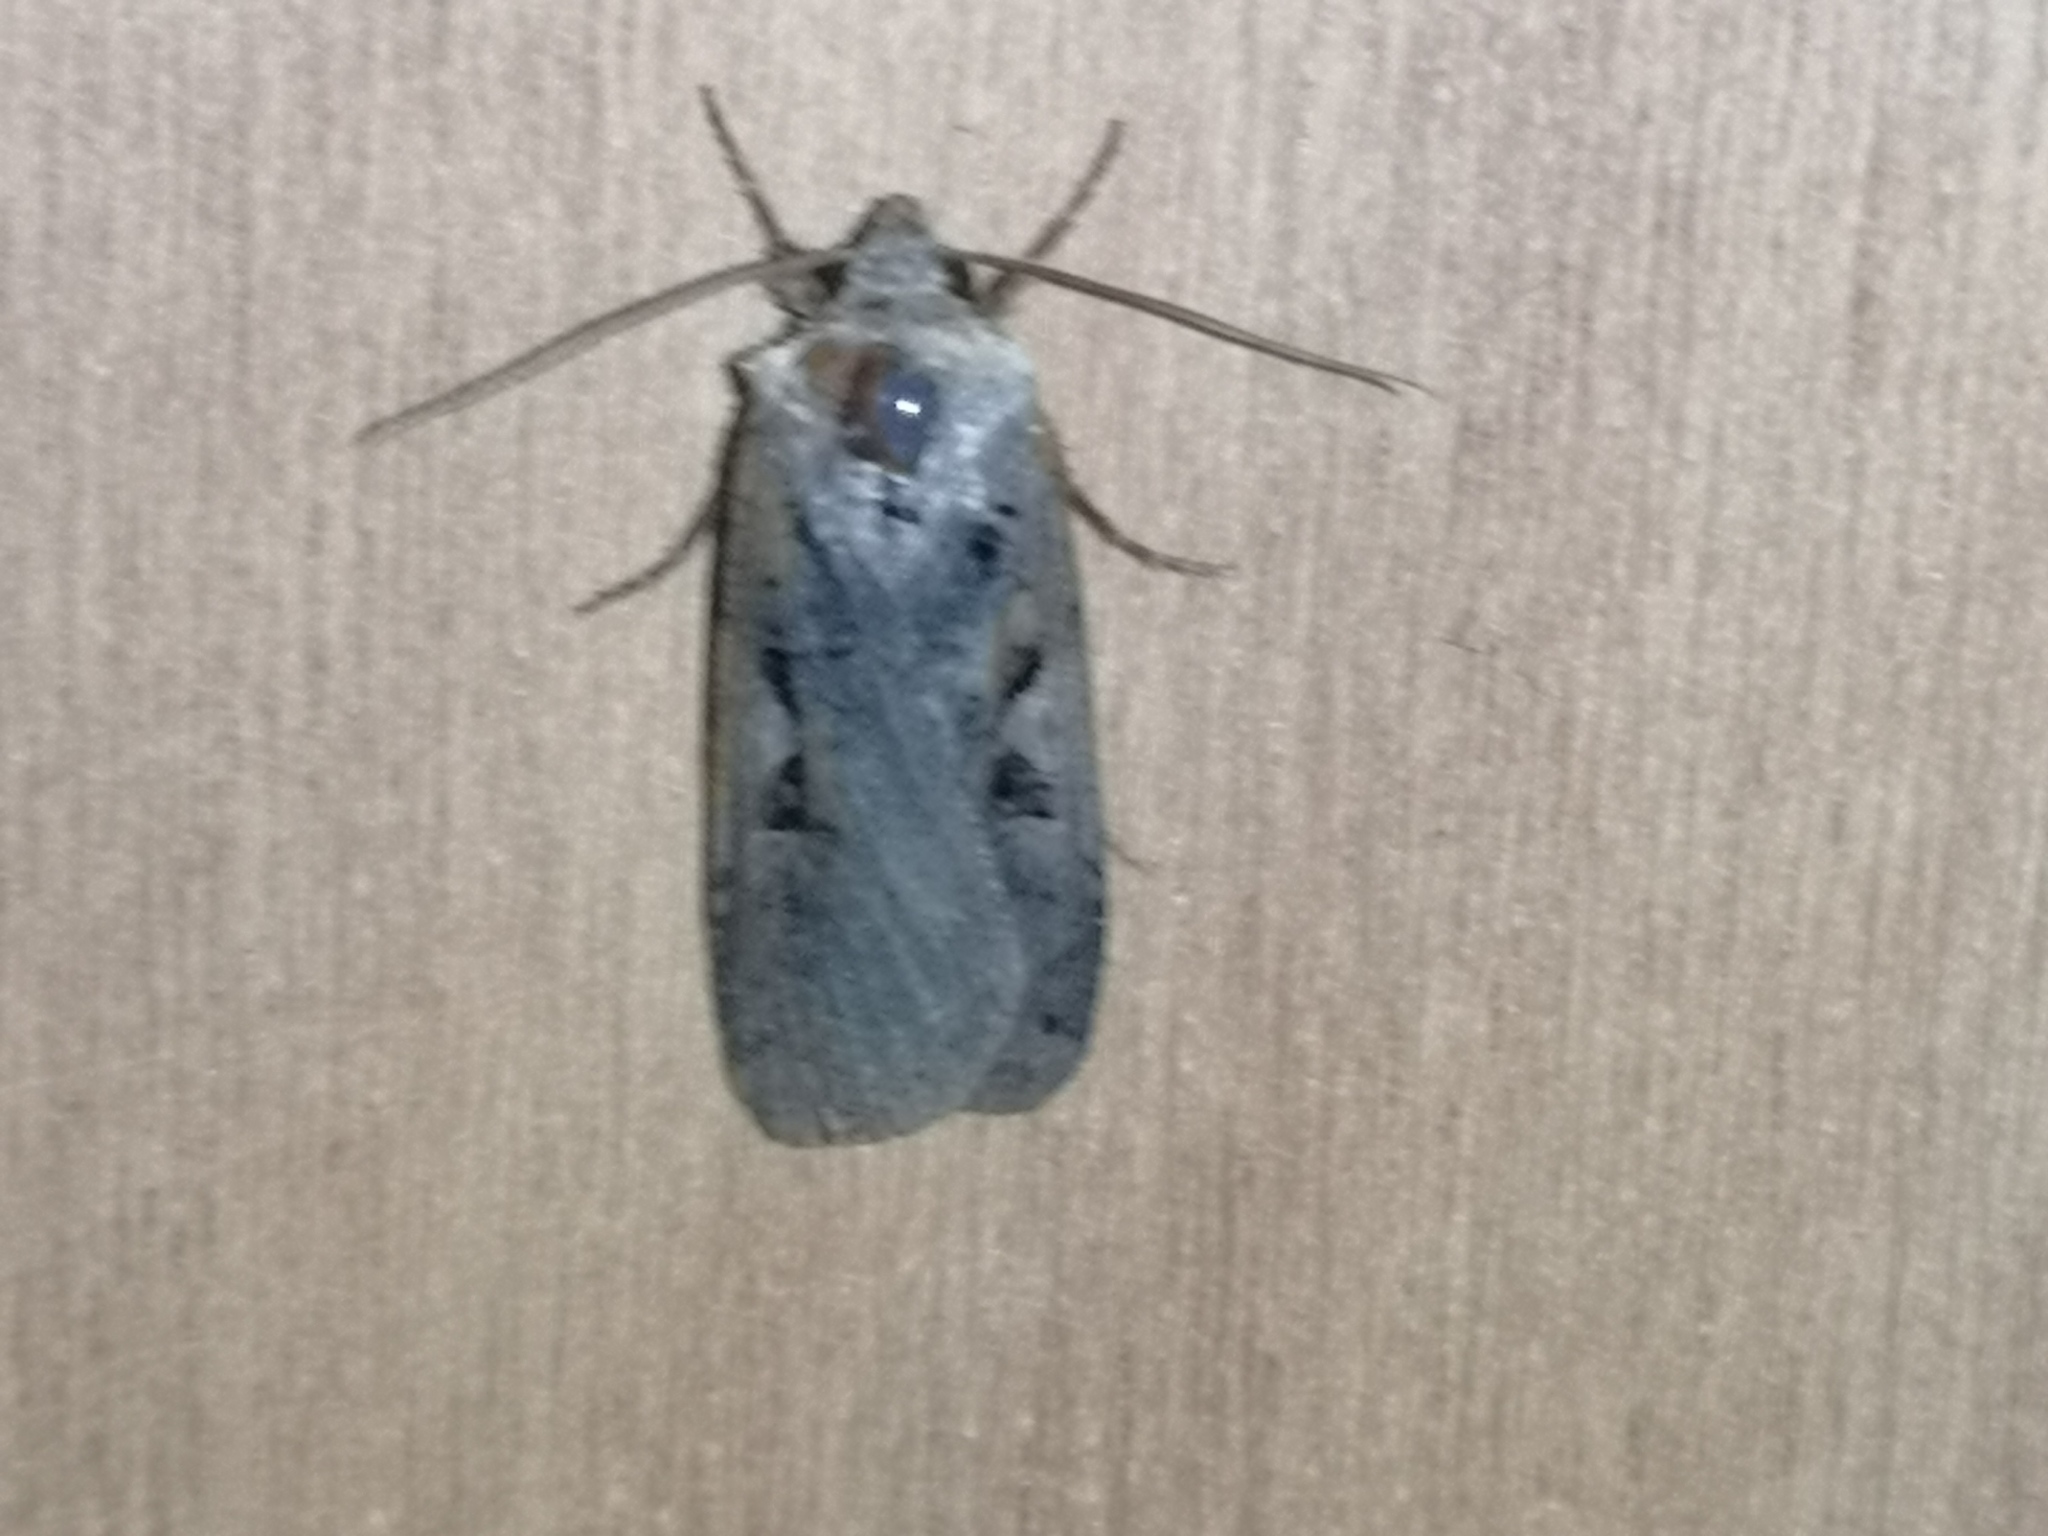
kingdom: Animalia
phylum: Arthropoda
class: Insecta
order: Lepidoptera
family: Noctuidae
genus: Xestia
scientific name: Xestia c-nigrum
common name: Setaceous hebrew character
